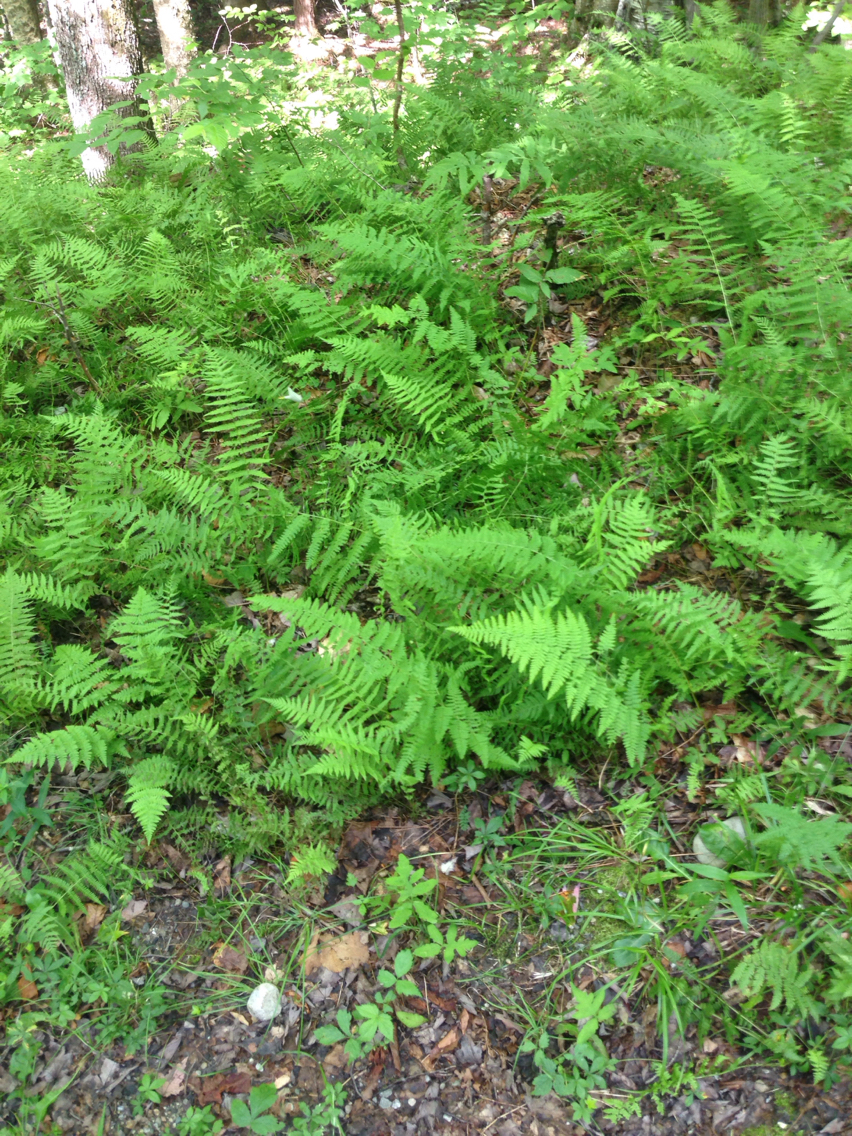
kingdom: Plantae
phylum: Tracheophyta
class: Polypodiopsida
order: Polypodiales
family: Dennstaedtiaceae
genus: Sitobolium
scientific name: Sitobolium punctilobum
